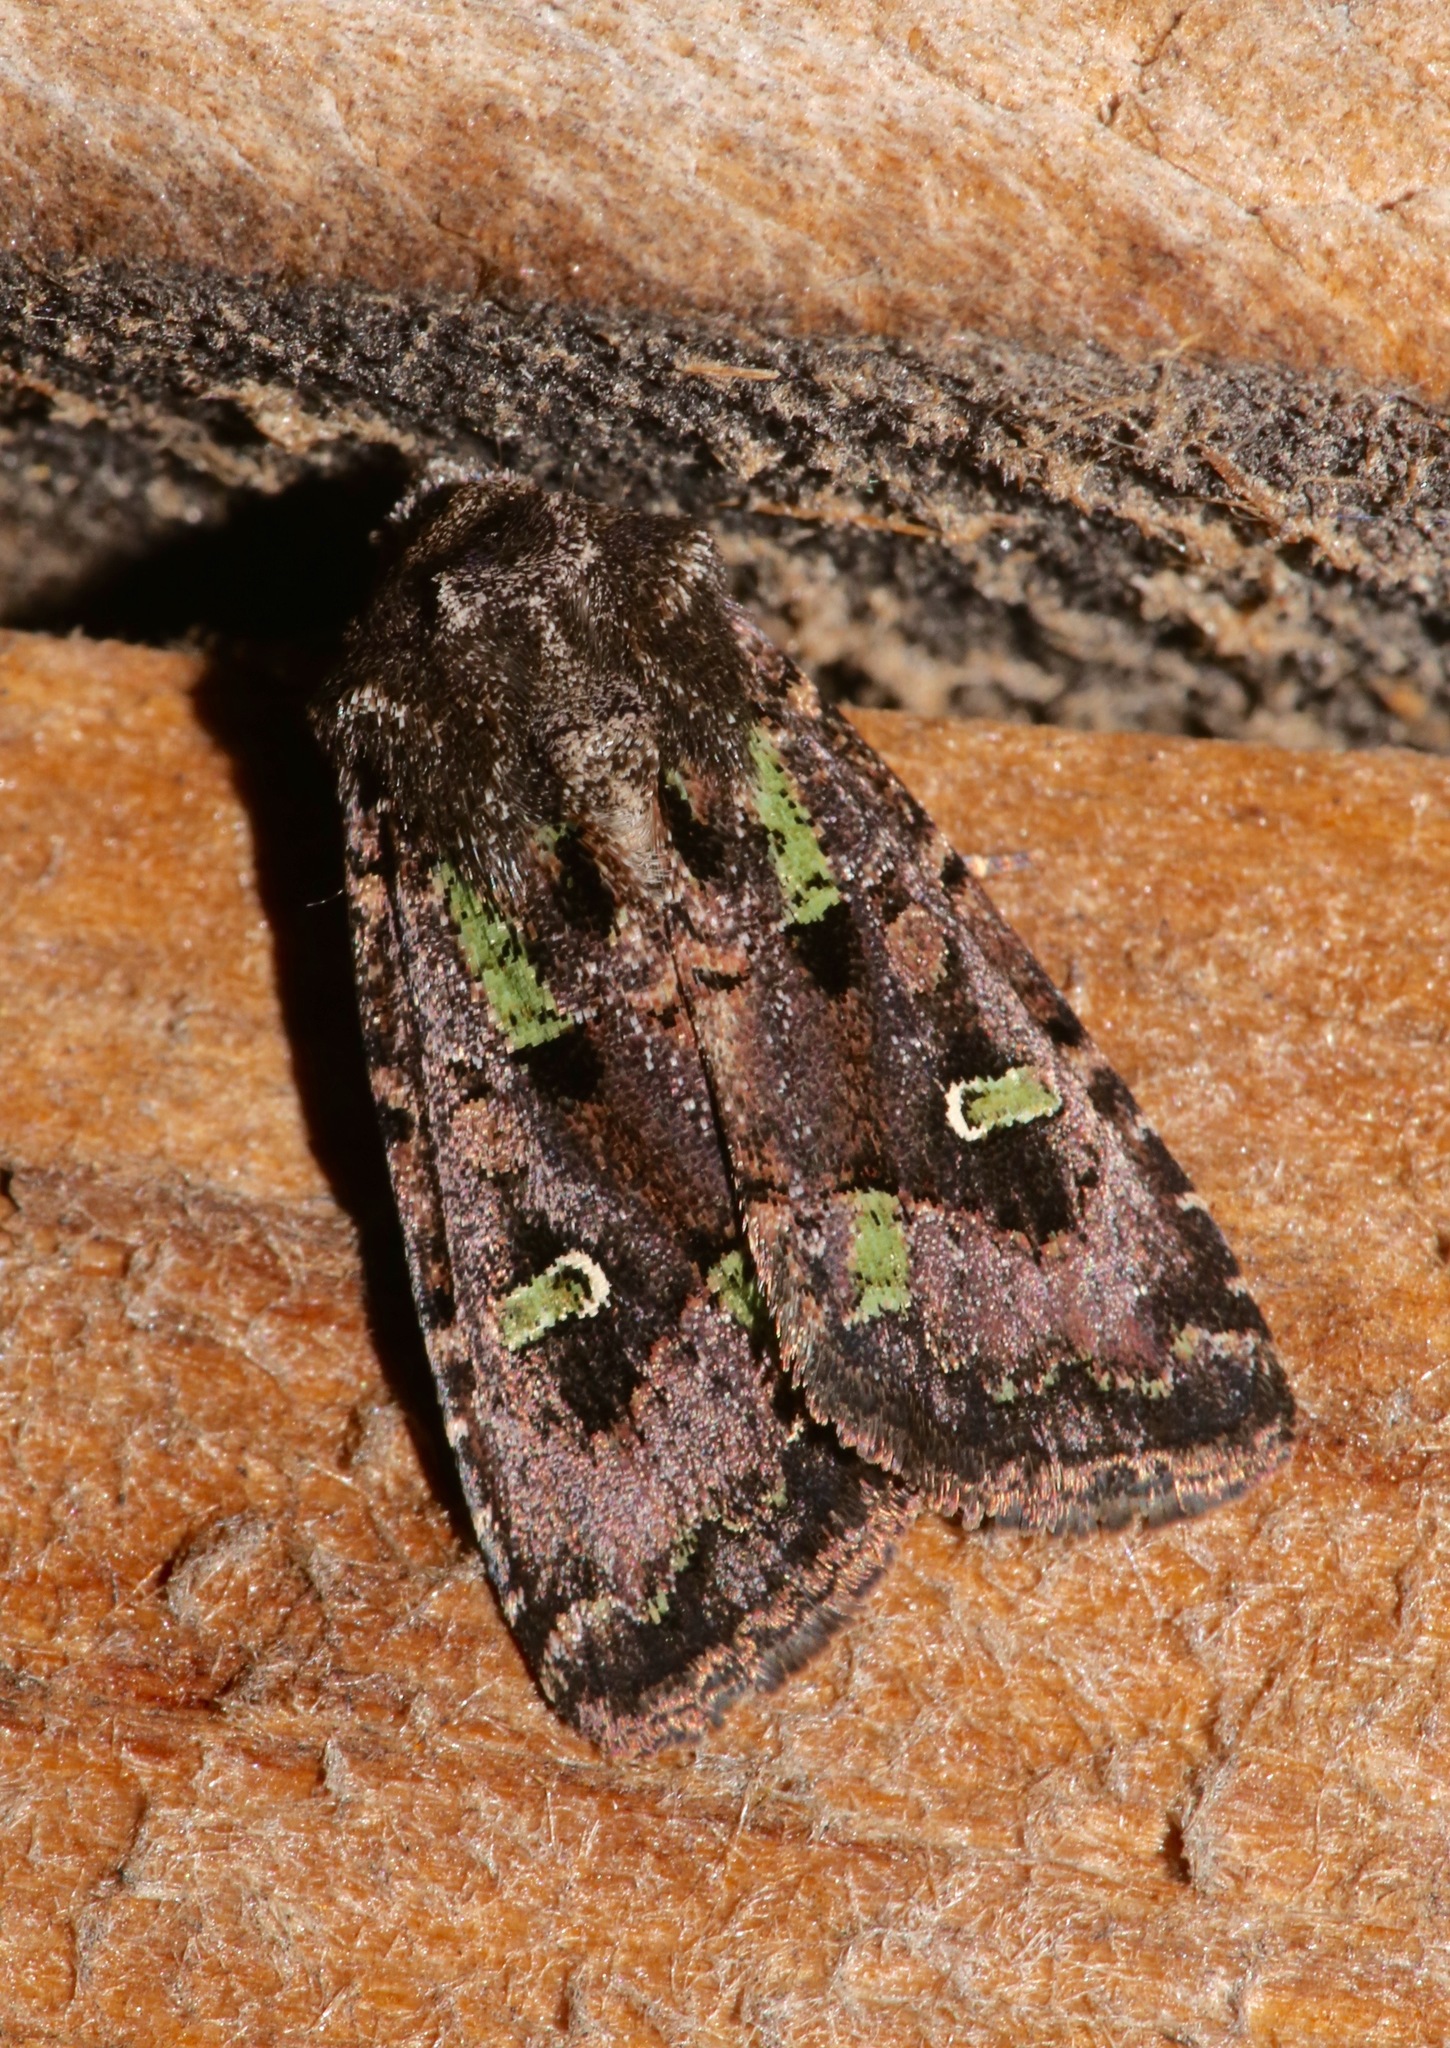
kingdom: Animalia
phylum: Arthropoda
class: Insecta
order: Lepidoptera
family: Noctuidae
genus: Lacinipolia
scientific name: Lacinipolia renigera
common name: Kidney-spotted minor
